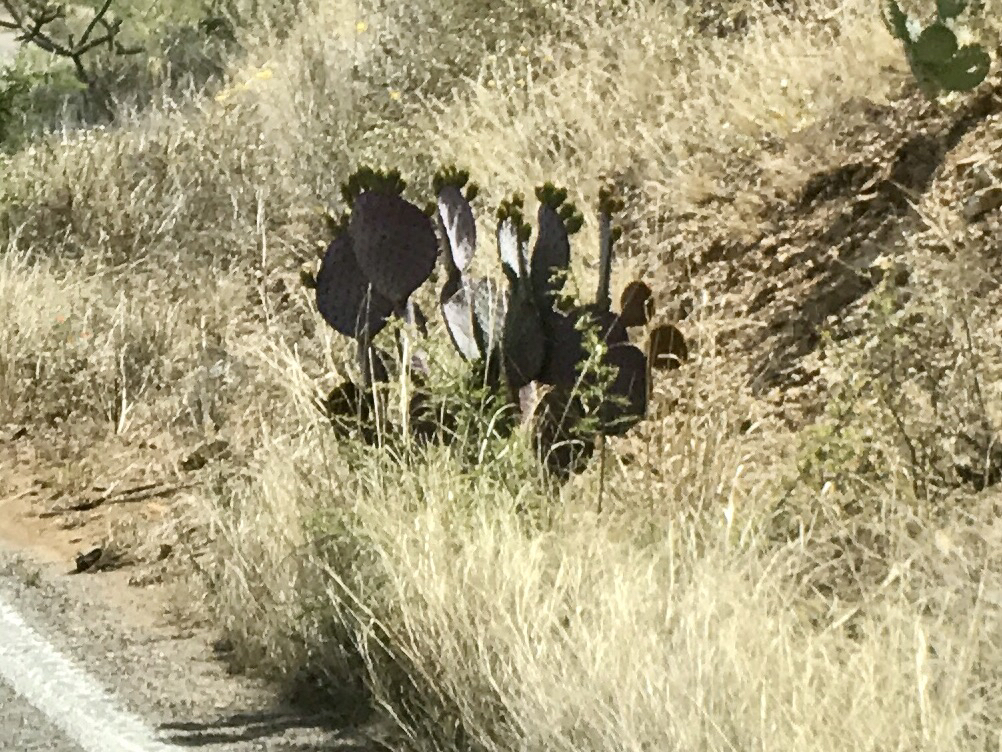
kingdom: Plantae
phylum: Tracheophyta
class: Magnoliopsida
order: Caryophyllales
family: Cactaceae
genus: Opuntia
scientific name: Opuntia gosseliniana
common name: Violet prickly-pear
